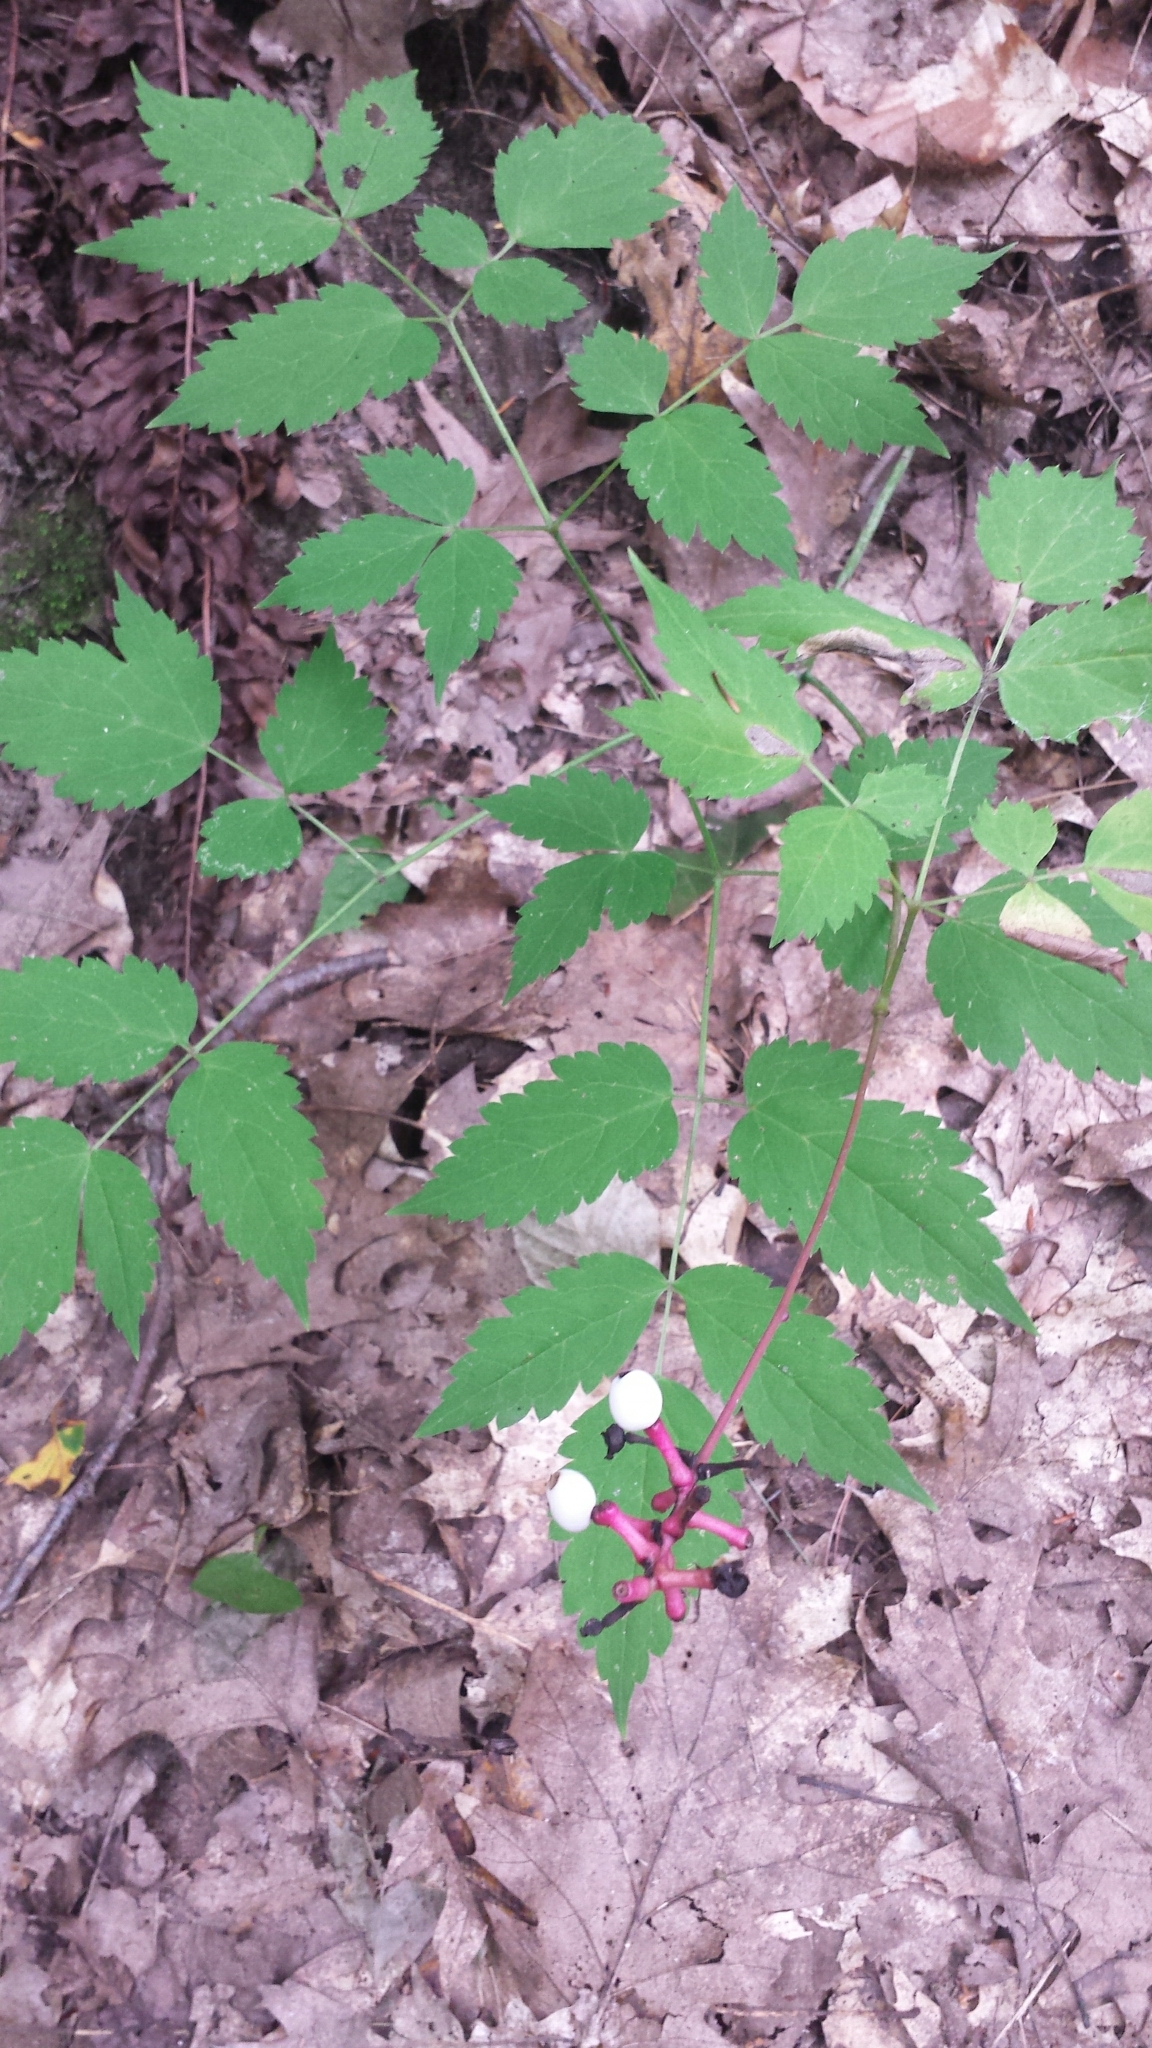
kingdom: Plantae
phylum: Tracheophyta
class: Magnoliopsida
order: Ranunculales
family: Ranunculaceae
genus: Actaea
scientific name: Actaea pachypoda
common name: Doll's-eyes
